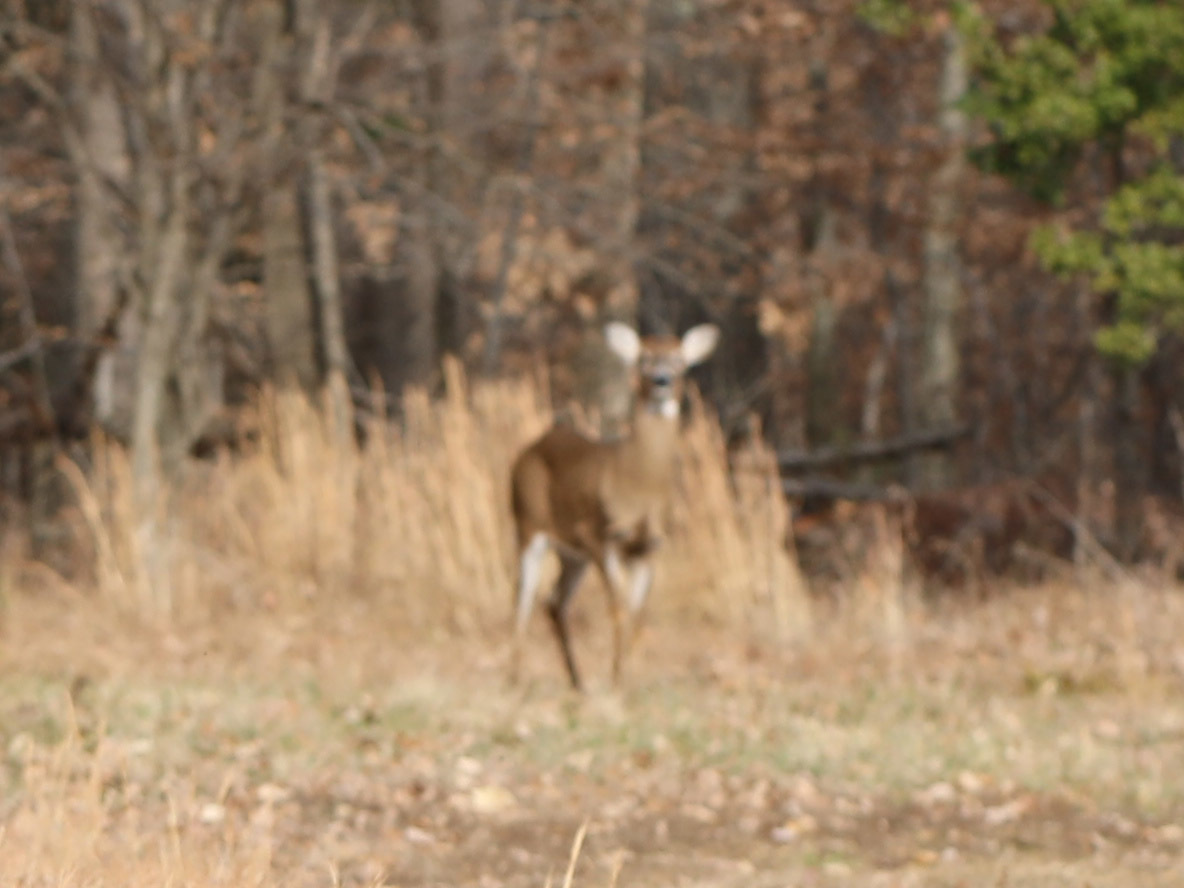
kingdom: Animalia
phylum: Chordata
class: Mammalia
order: Artiodactyla
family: Cervidae
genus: Odocoileus
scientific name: Odocoileus virginianus
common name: White-tailed deer
